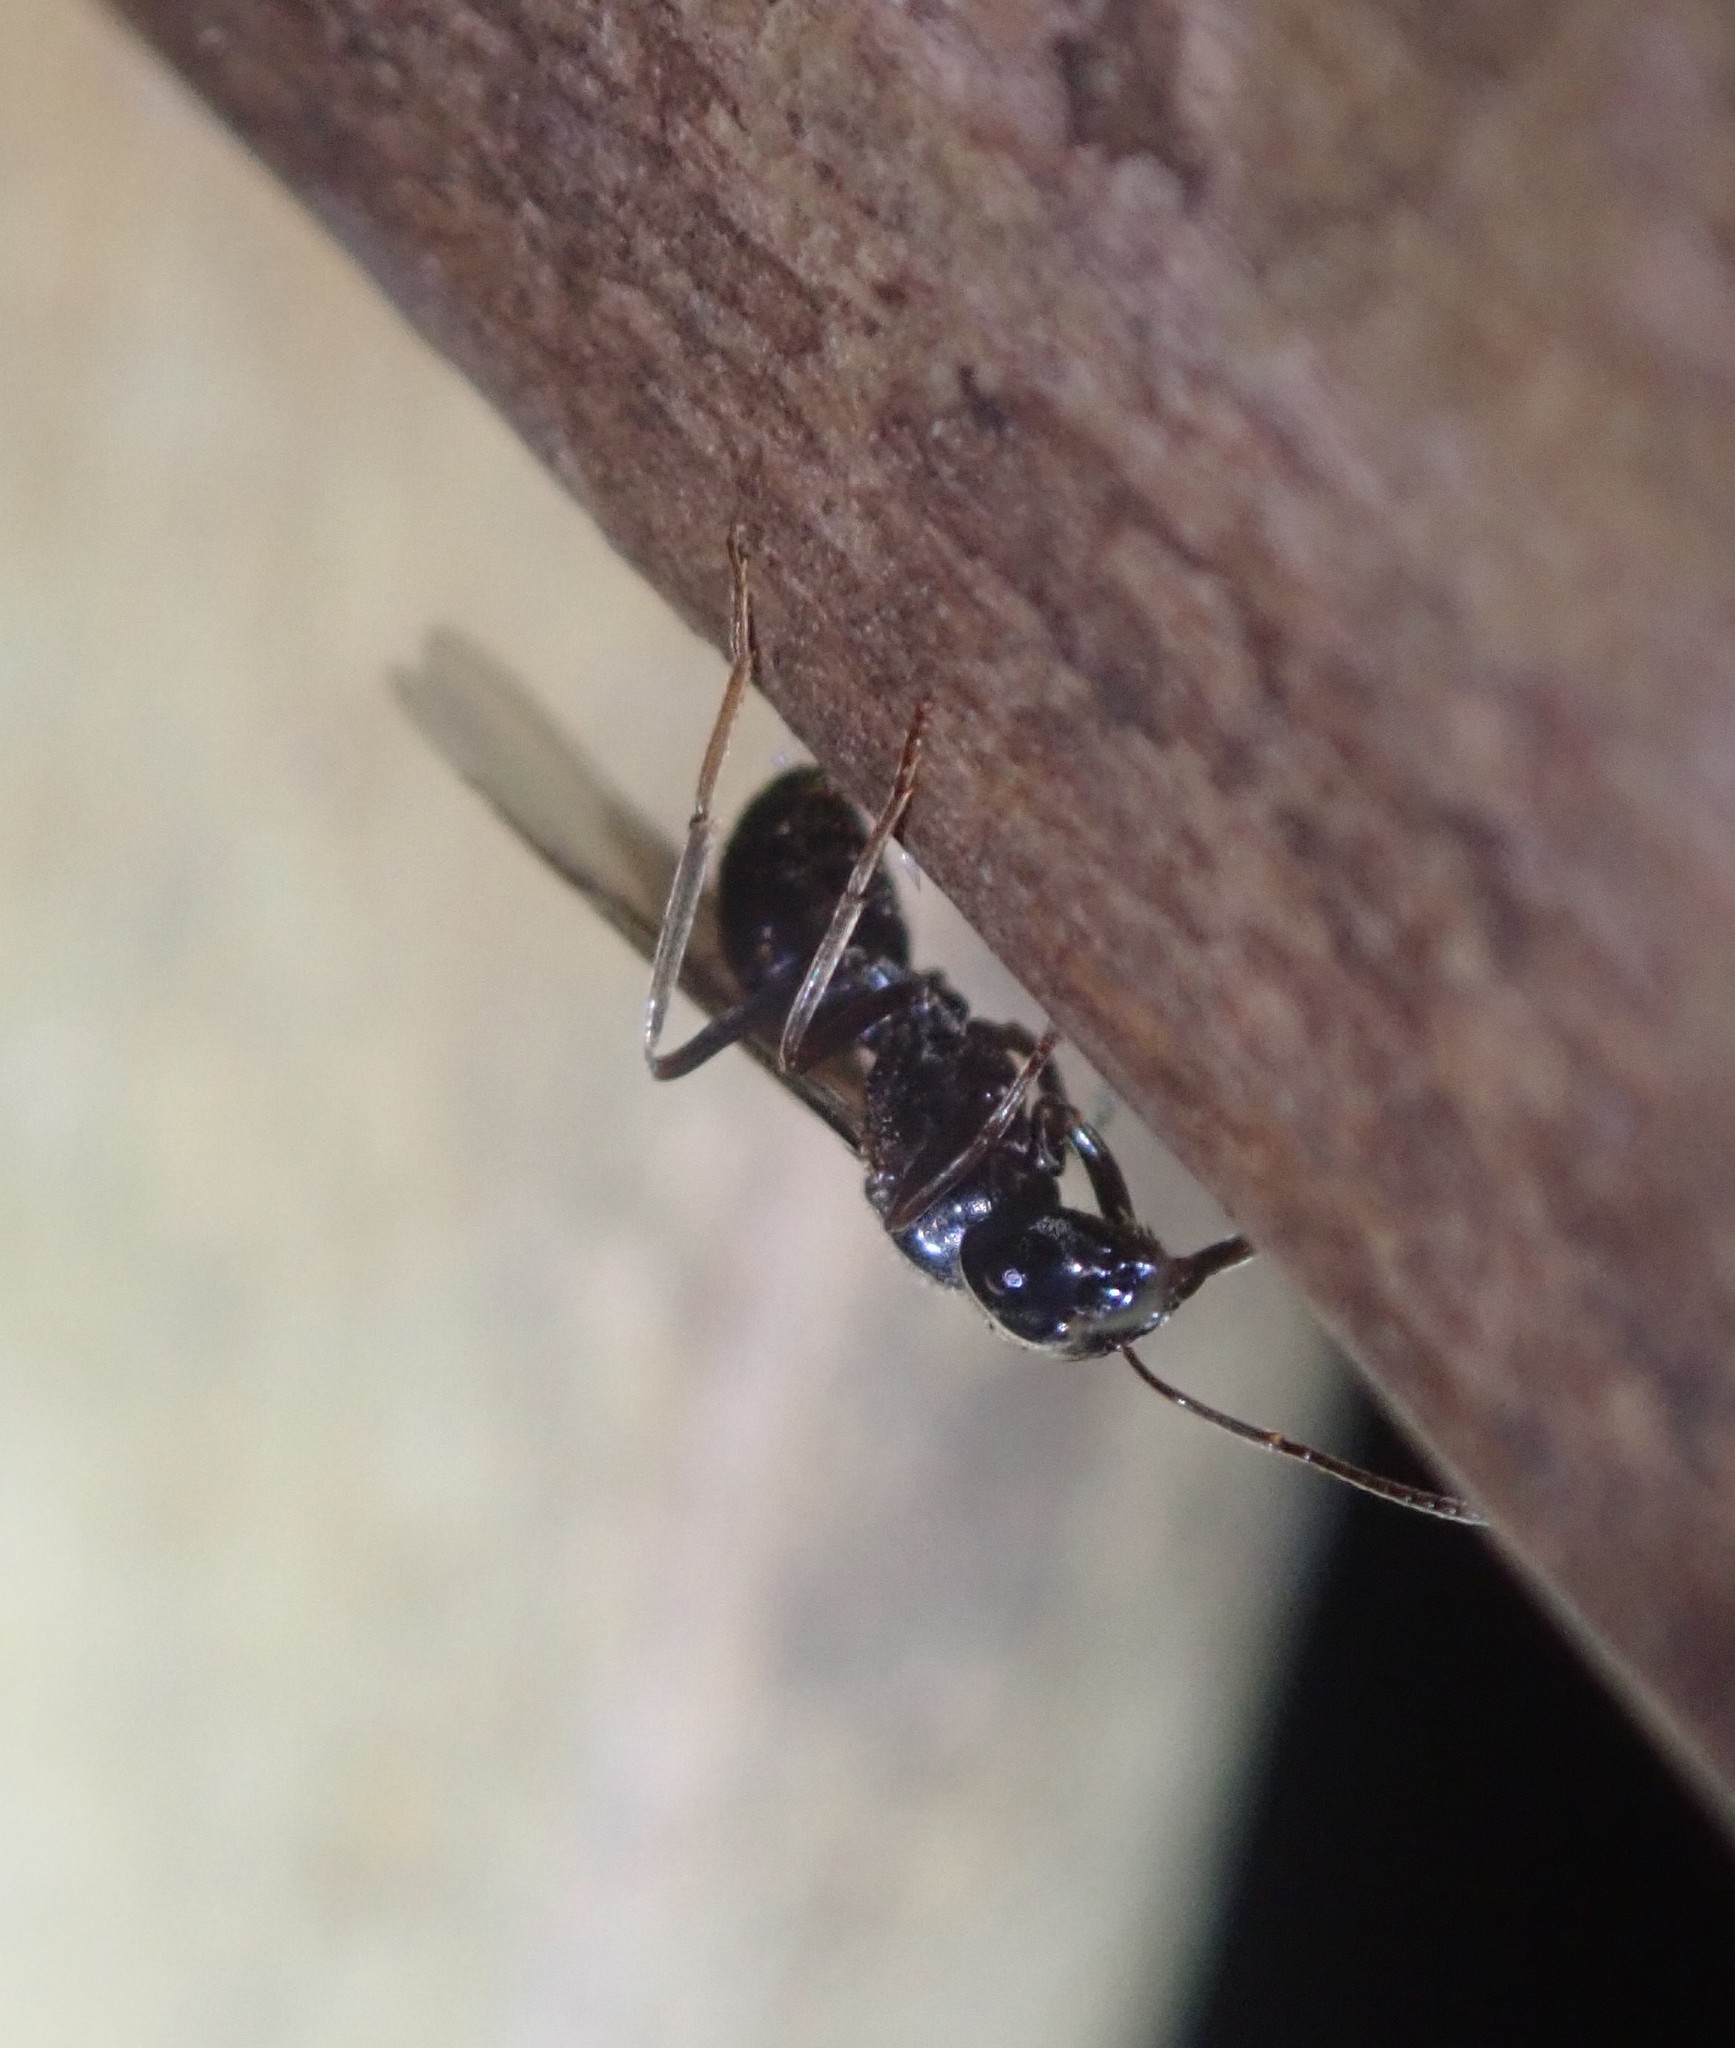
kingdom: Animalia
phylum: Arthropoda
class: Insecta
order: Hymenoptera
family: Formicidae
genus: Lasius
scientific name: Lasius fuliginosus
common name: Jet ant
